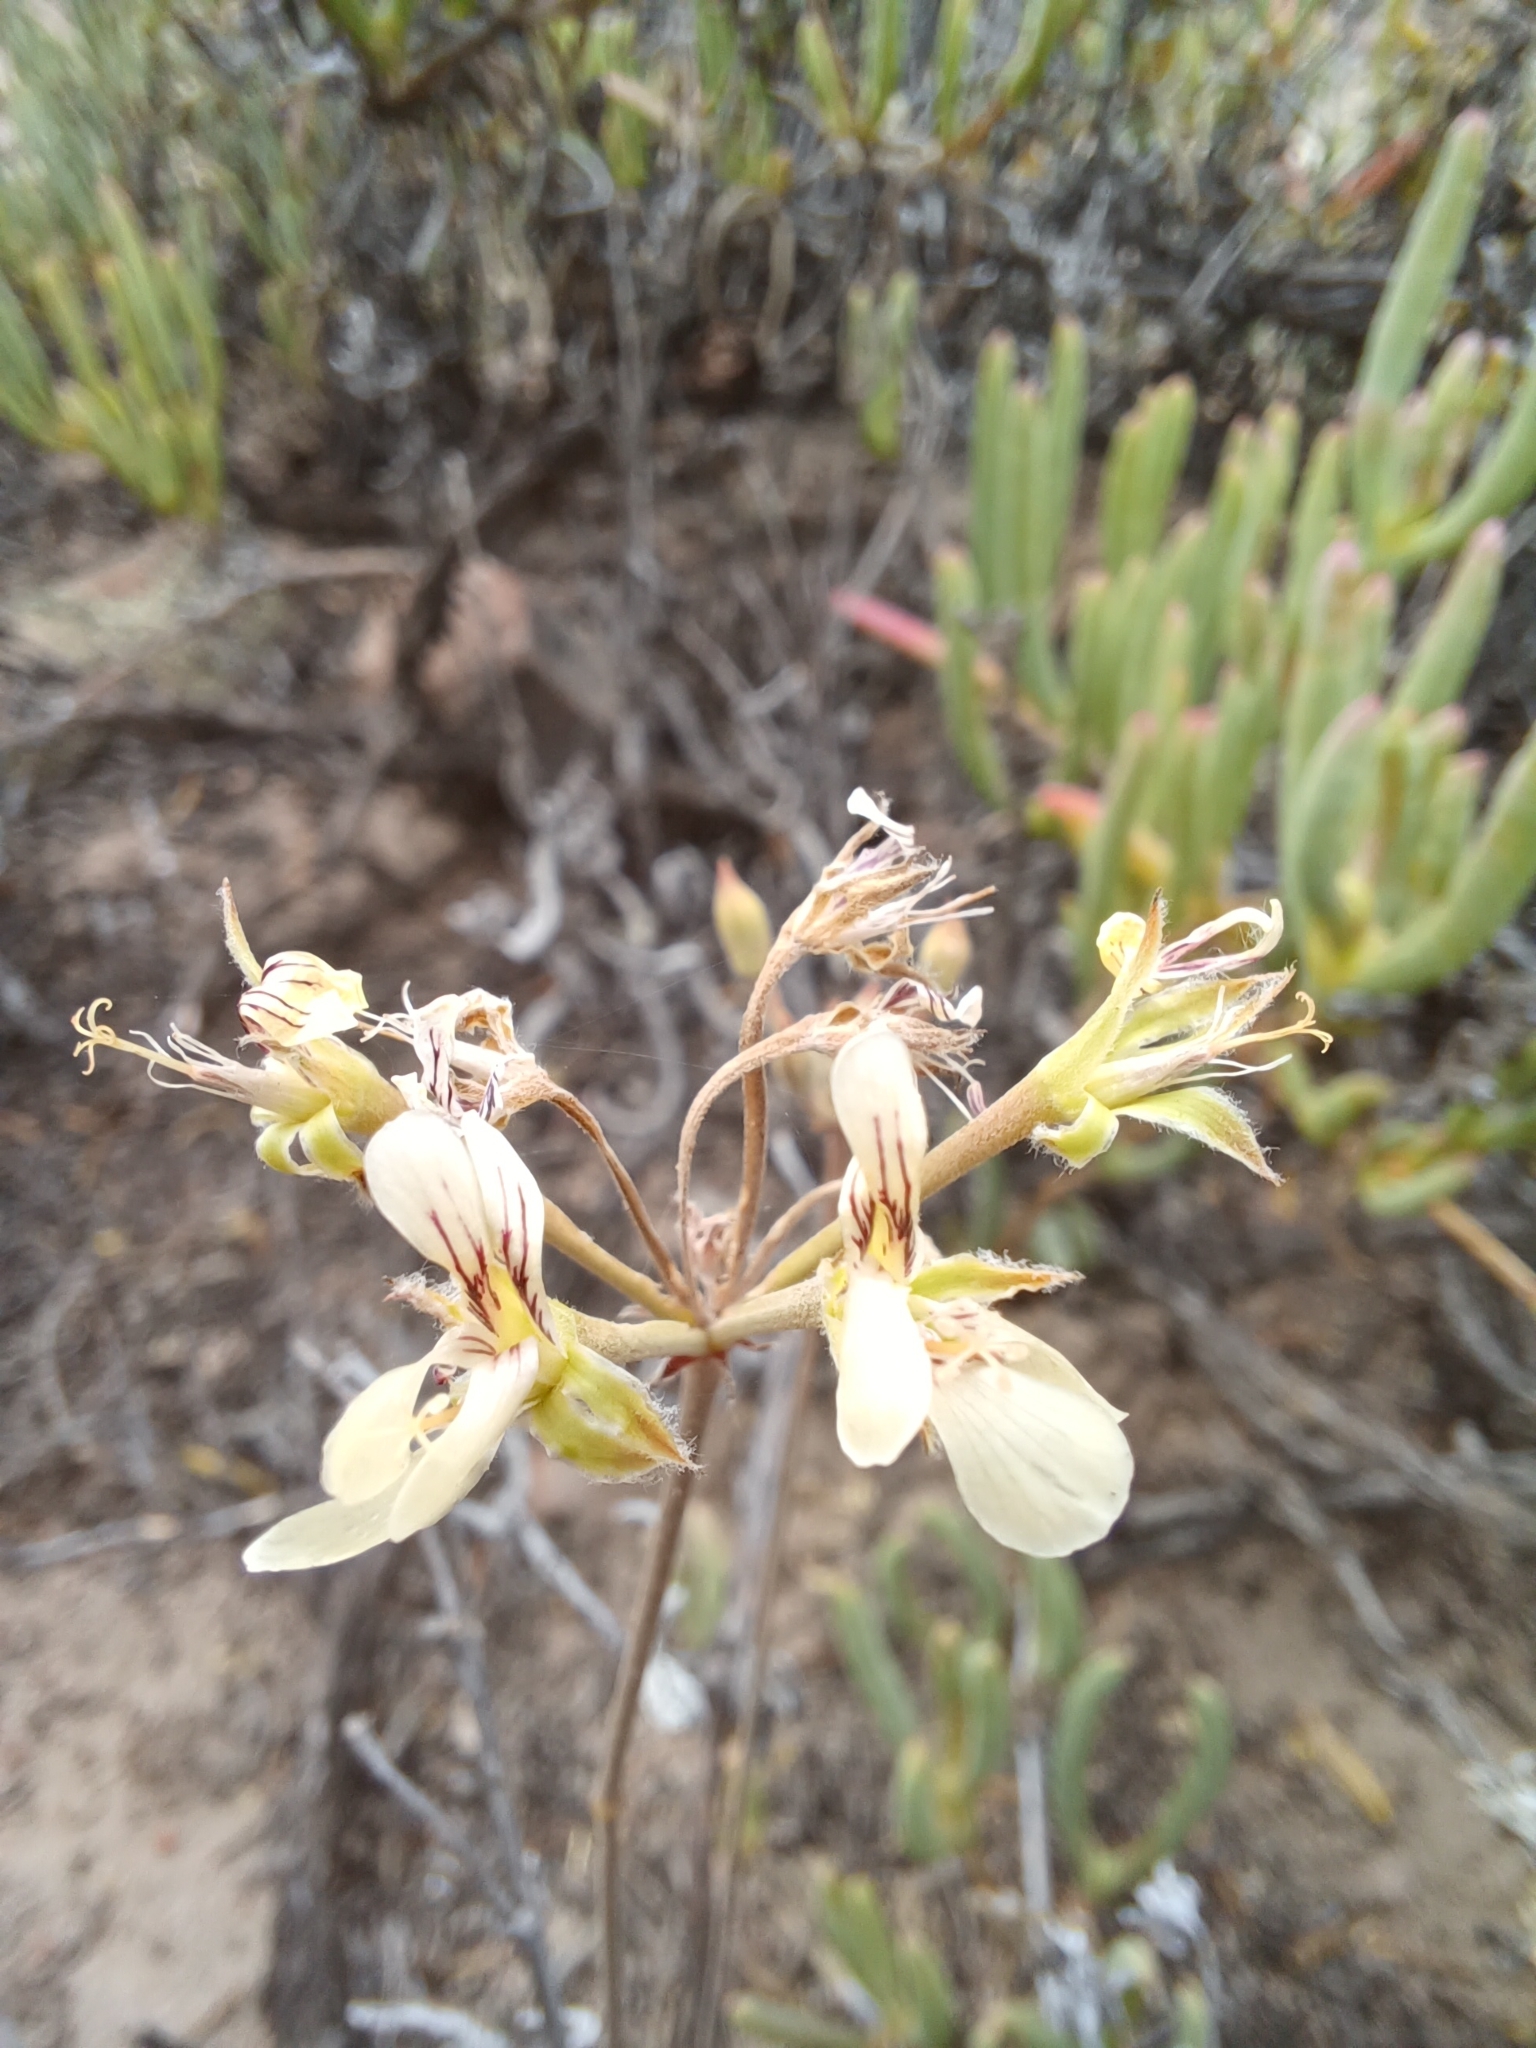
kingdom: Plantae
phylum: Tracheophyta
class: Magnoliopsida
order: Geraniales
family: Geraniaceae
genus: Pelargonium
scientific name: Pelargonium luteolum
